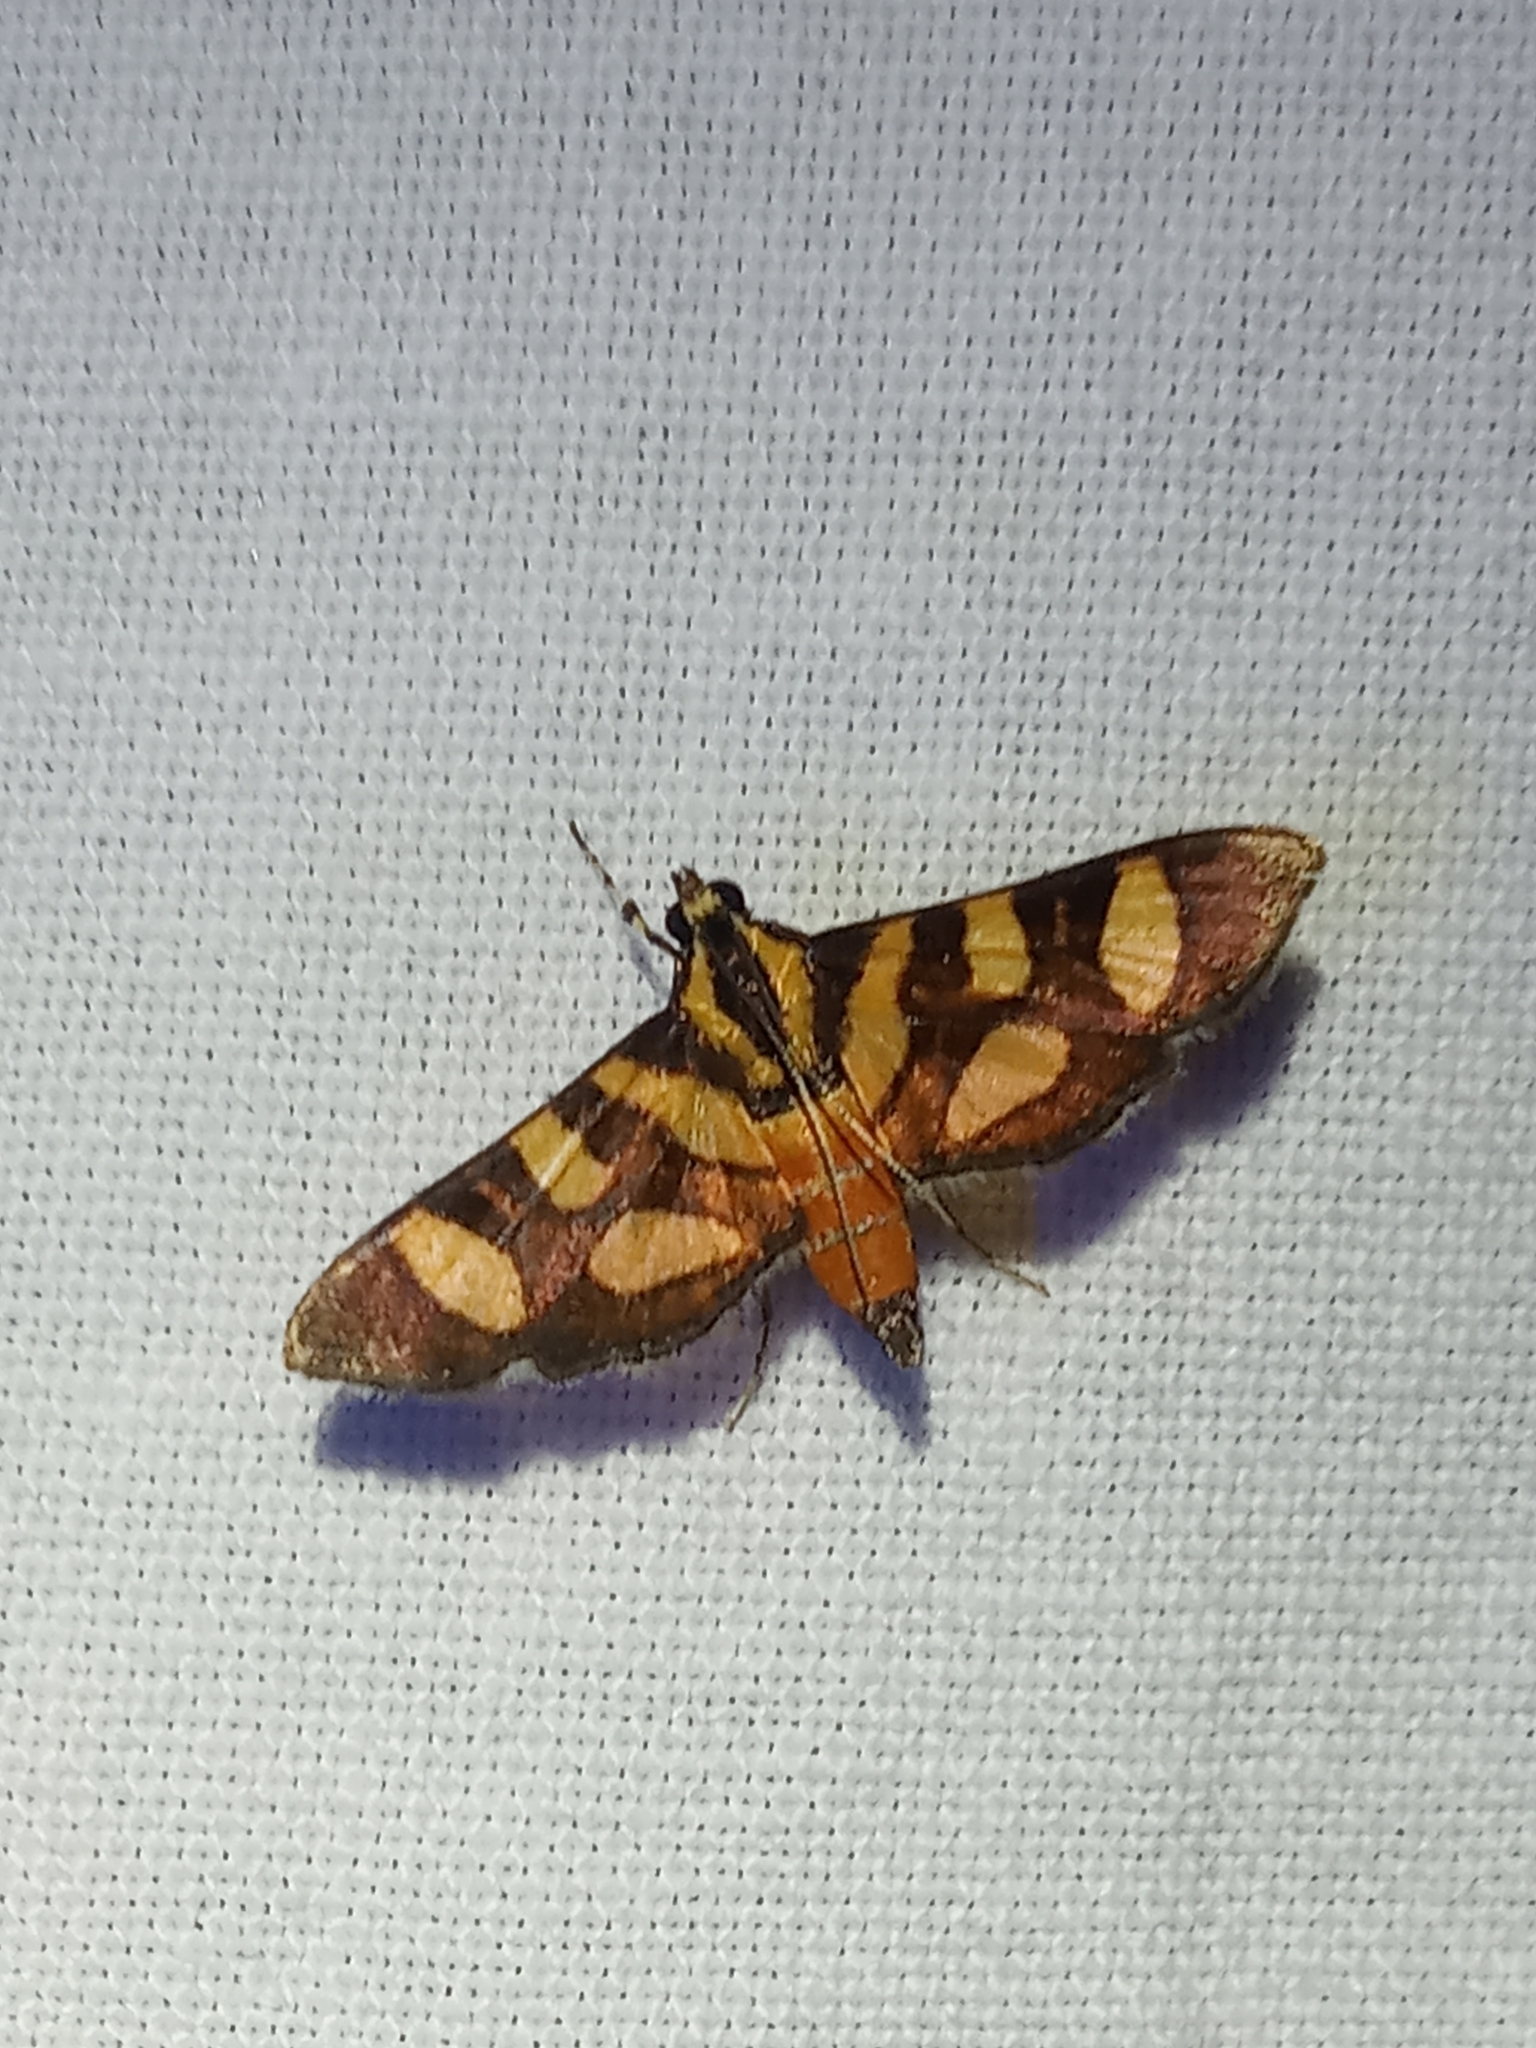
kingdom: Animalia
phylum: Arthropoda
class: Insecta
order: Lepidoptera
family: Crambidae
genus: Syngamia
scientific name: Syngamia florella
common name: Orange-spotted flower moth
